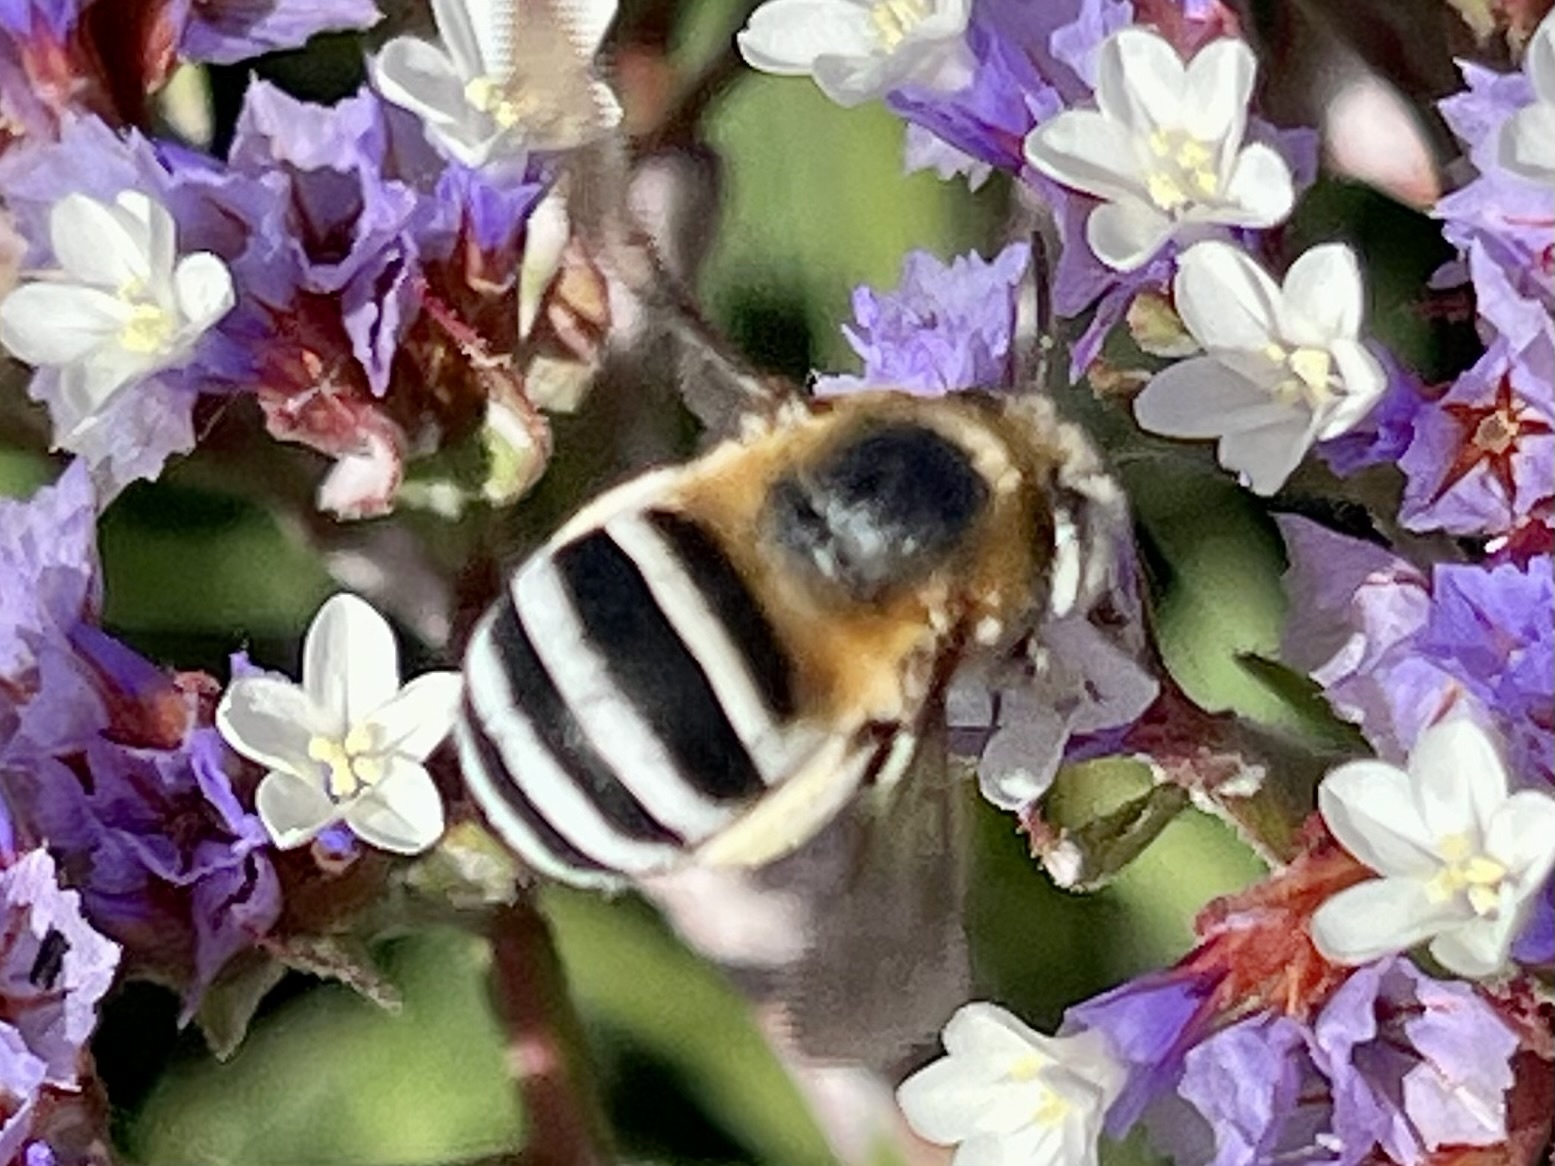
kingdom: Animalia
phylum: Arthropoda
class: Insecta
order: Hymenoptera
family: Apidae
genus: Amegilla
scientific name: Amegilla quadrifasciata
